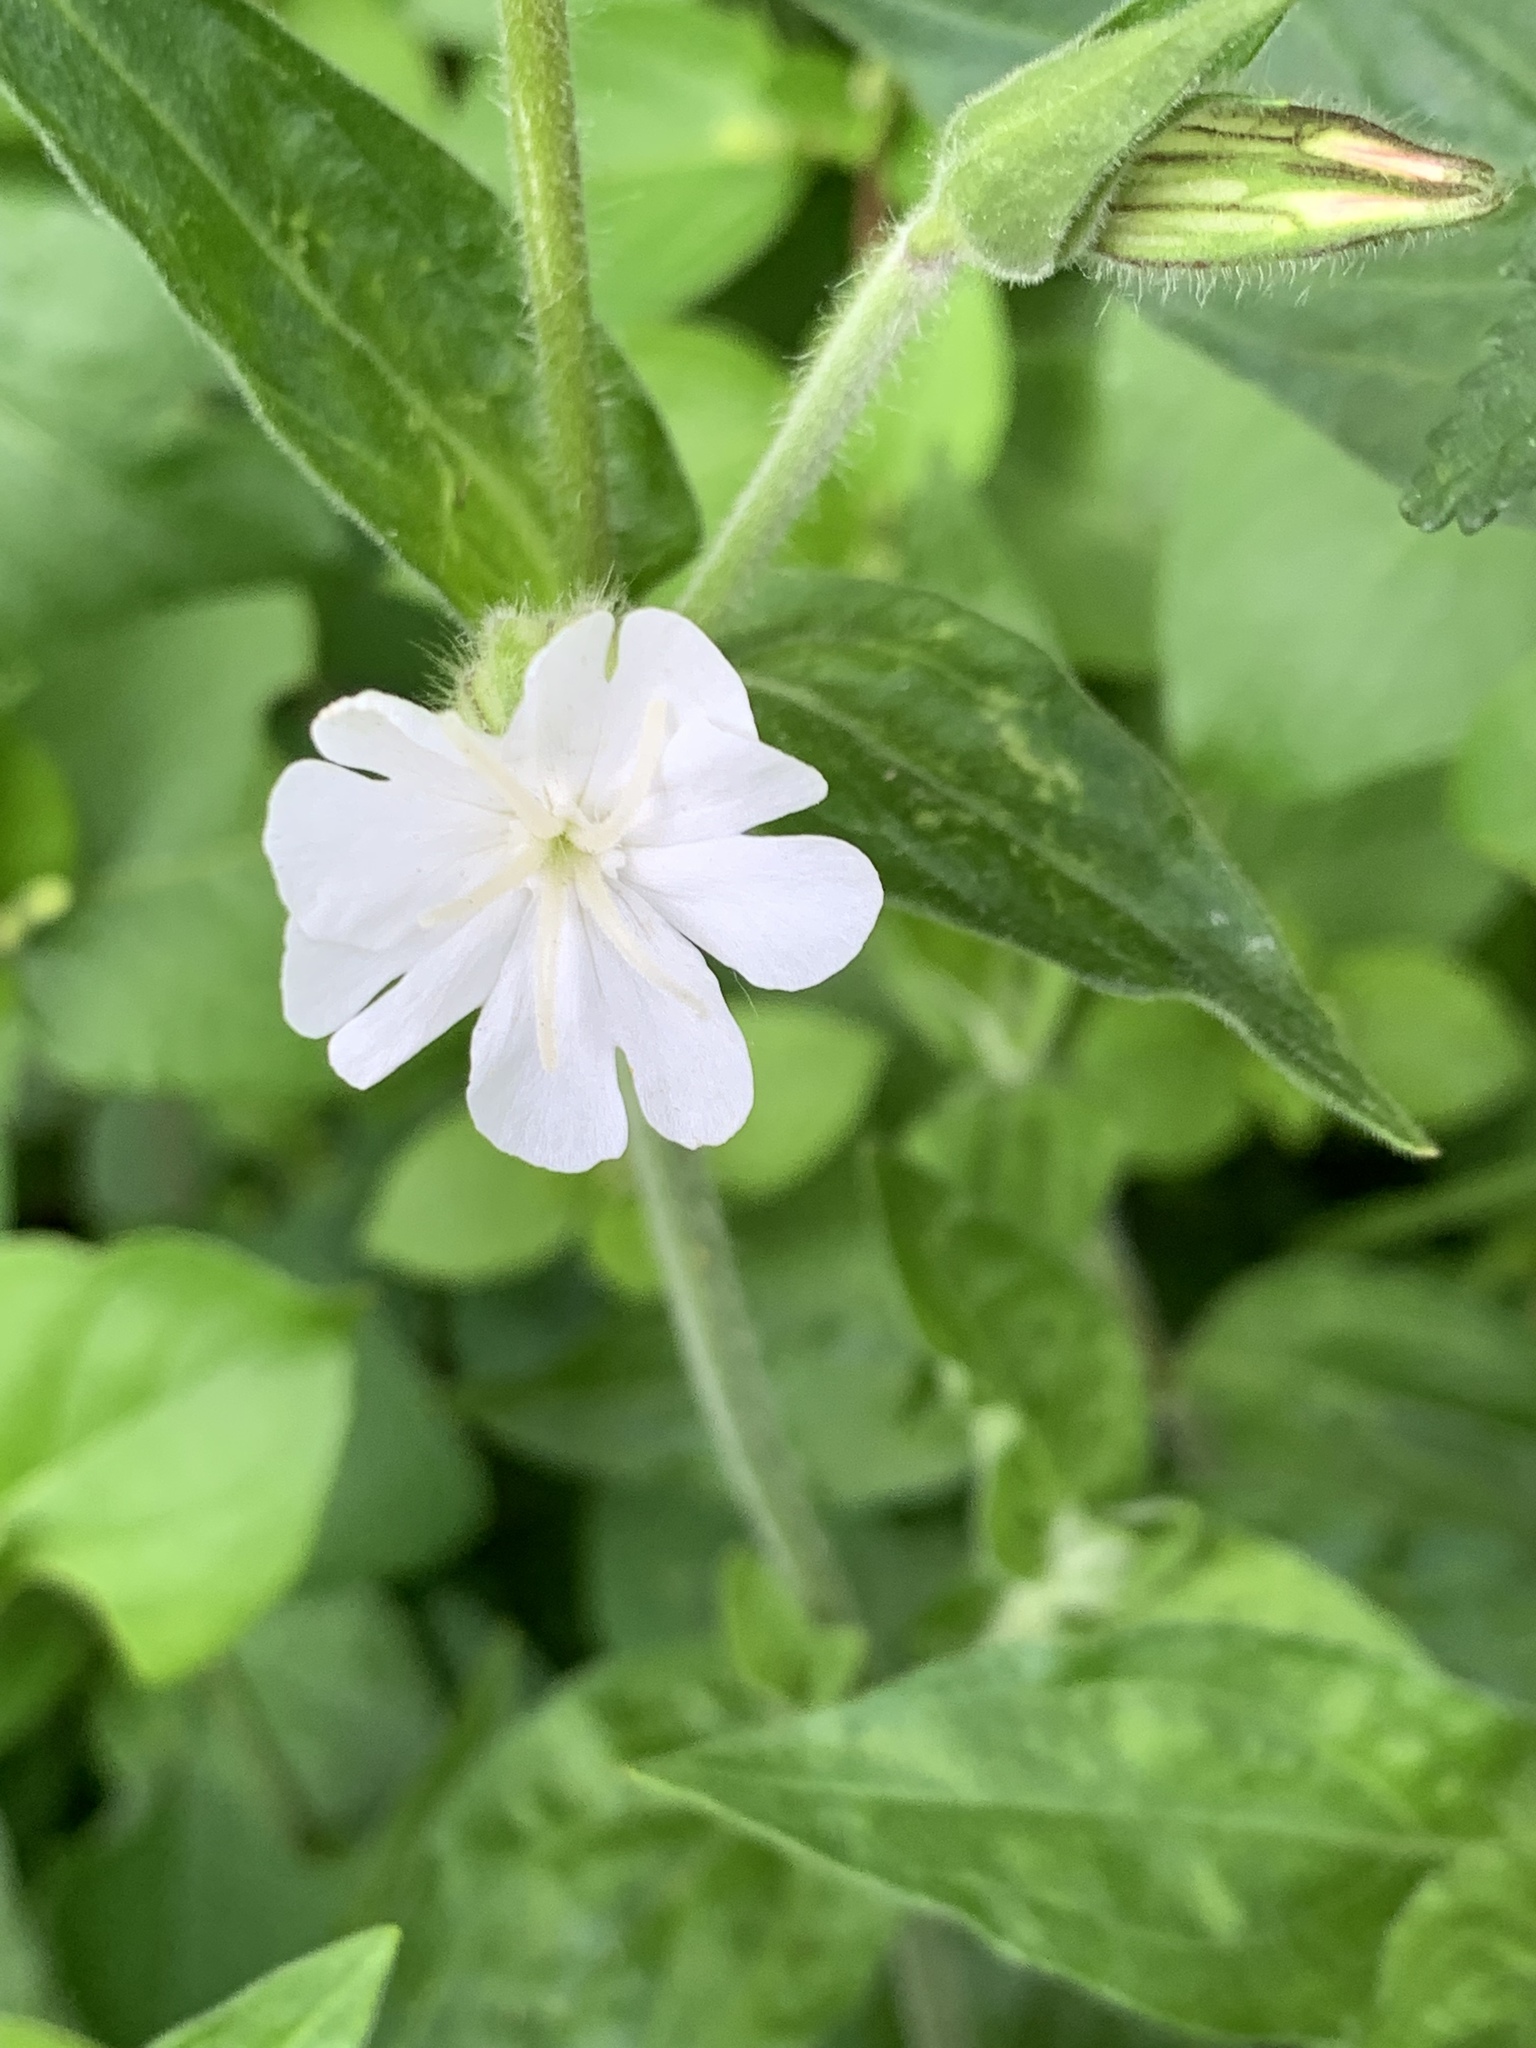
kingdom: Plantae
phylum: Tracheophyta
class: Magnoliopsida
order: Caryophyllales
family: Caryophyllaceae
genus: Silene
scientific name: Silene latifolia
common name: White campion
